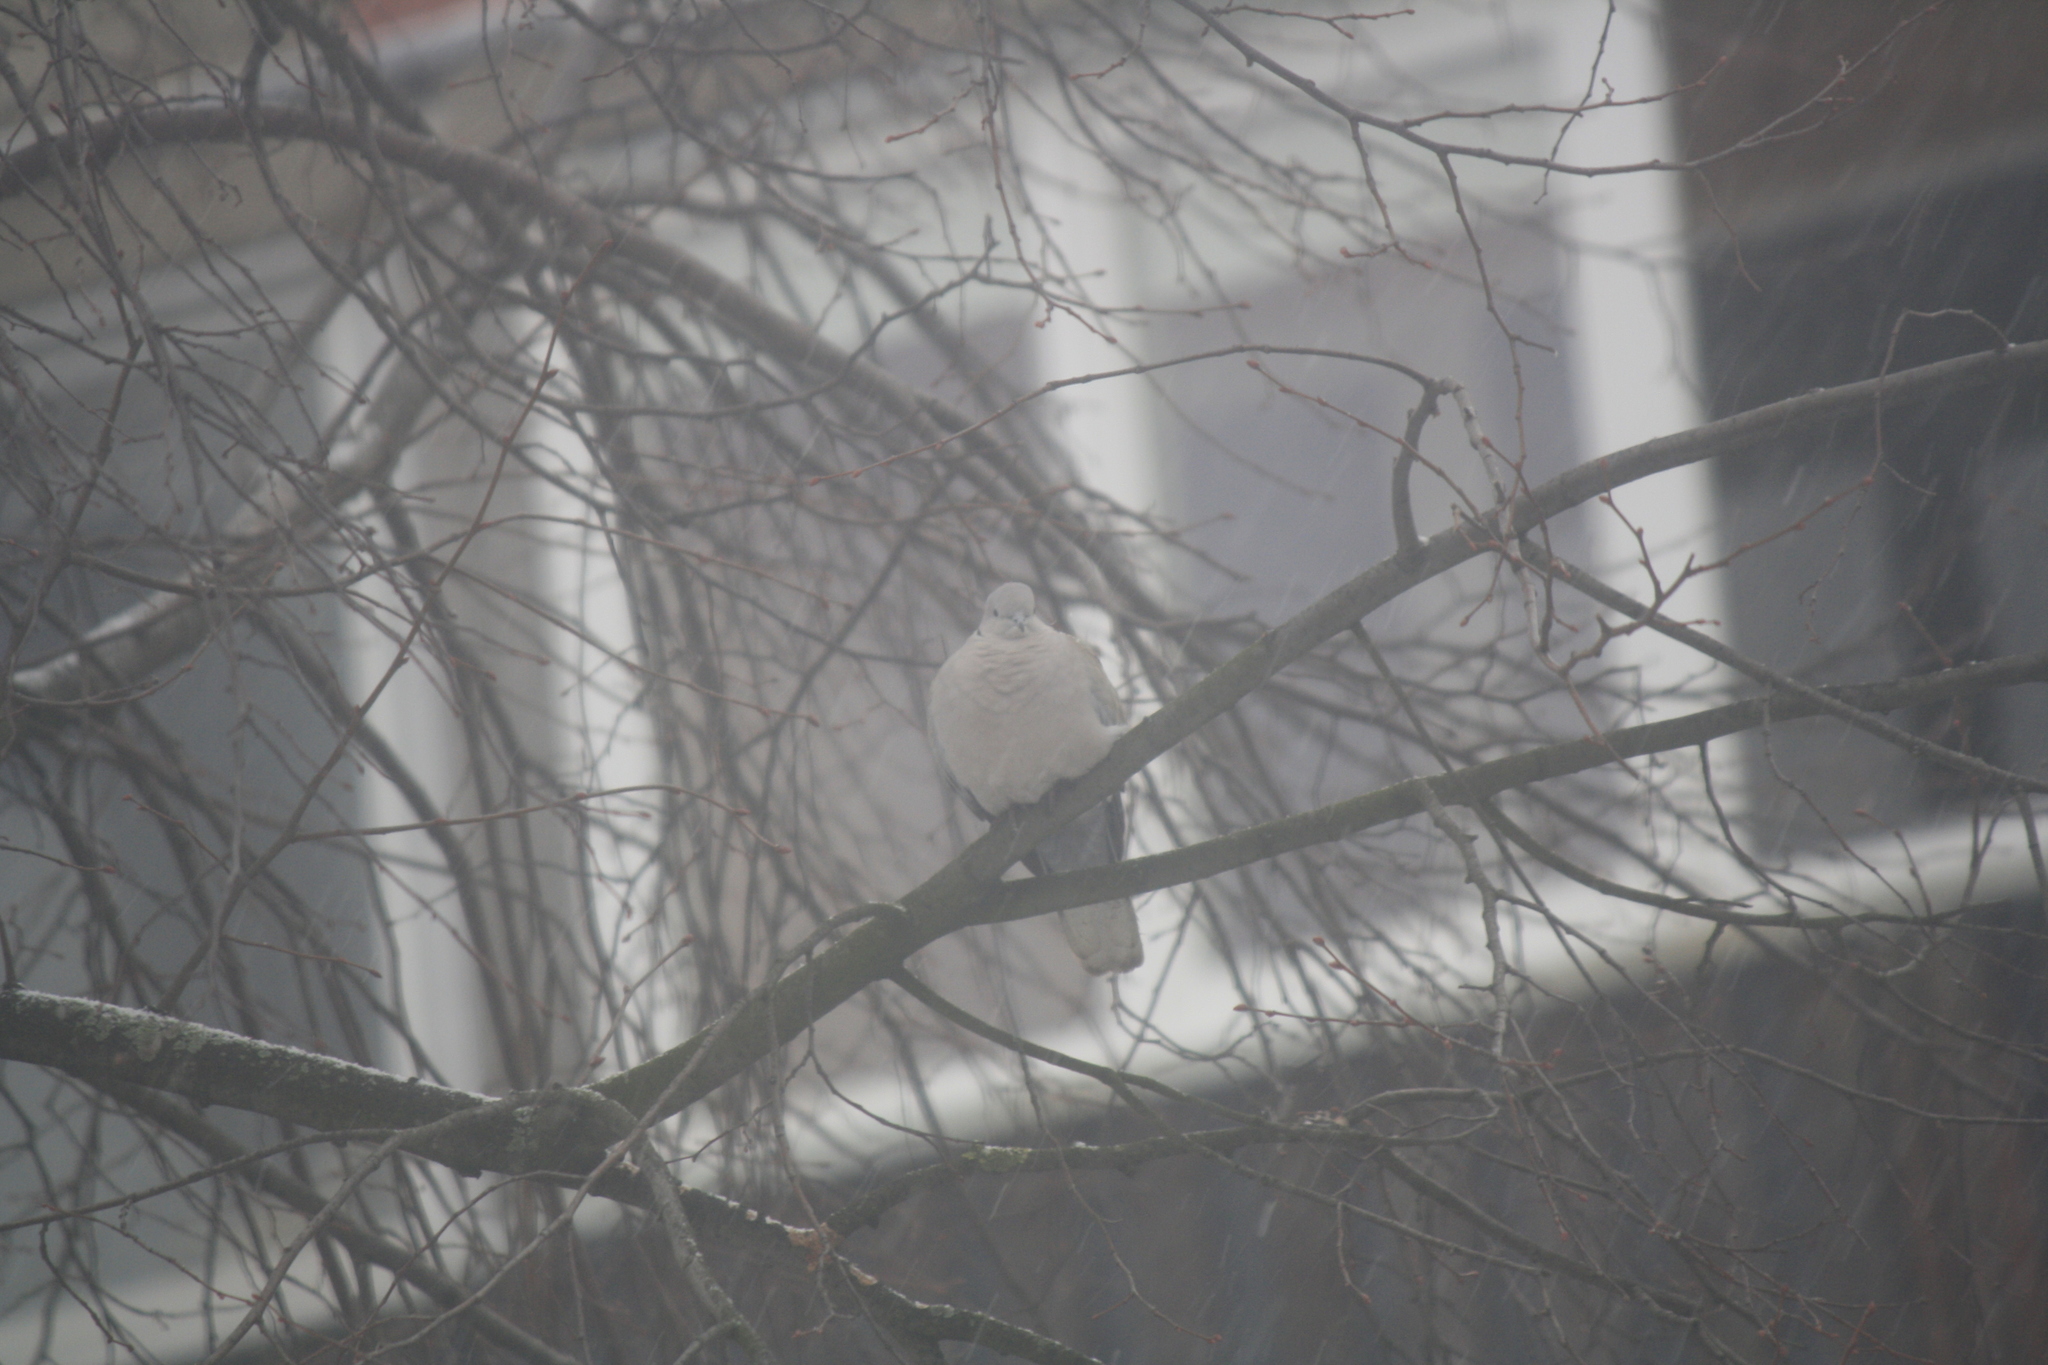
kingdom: Animalia
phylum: Chordata
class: Aves
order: Columbiformes
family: Columbidae
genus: Streptopelia
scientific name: Streptopelia decaocto
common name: Eurasian collared dove
